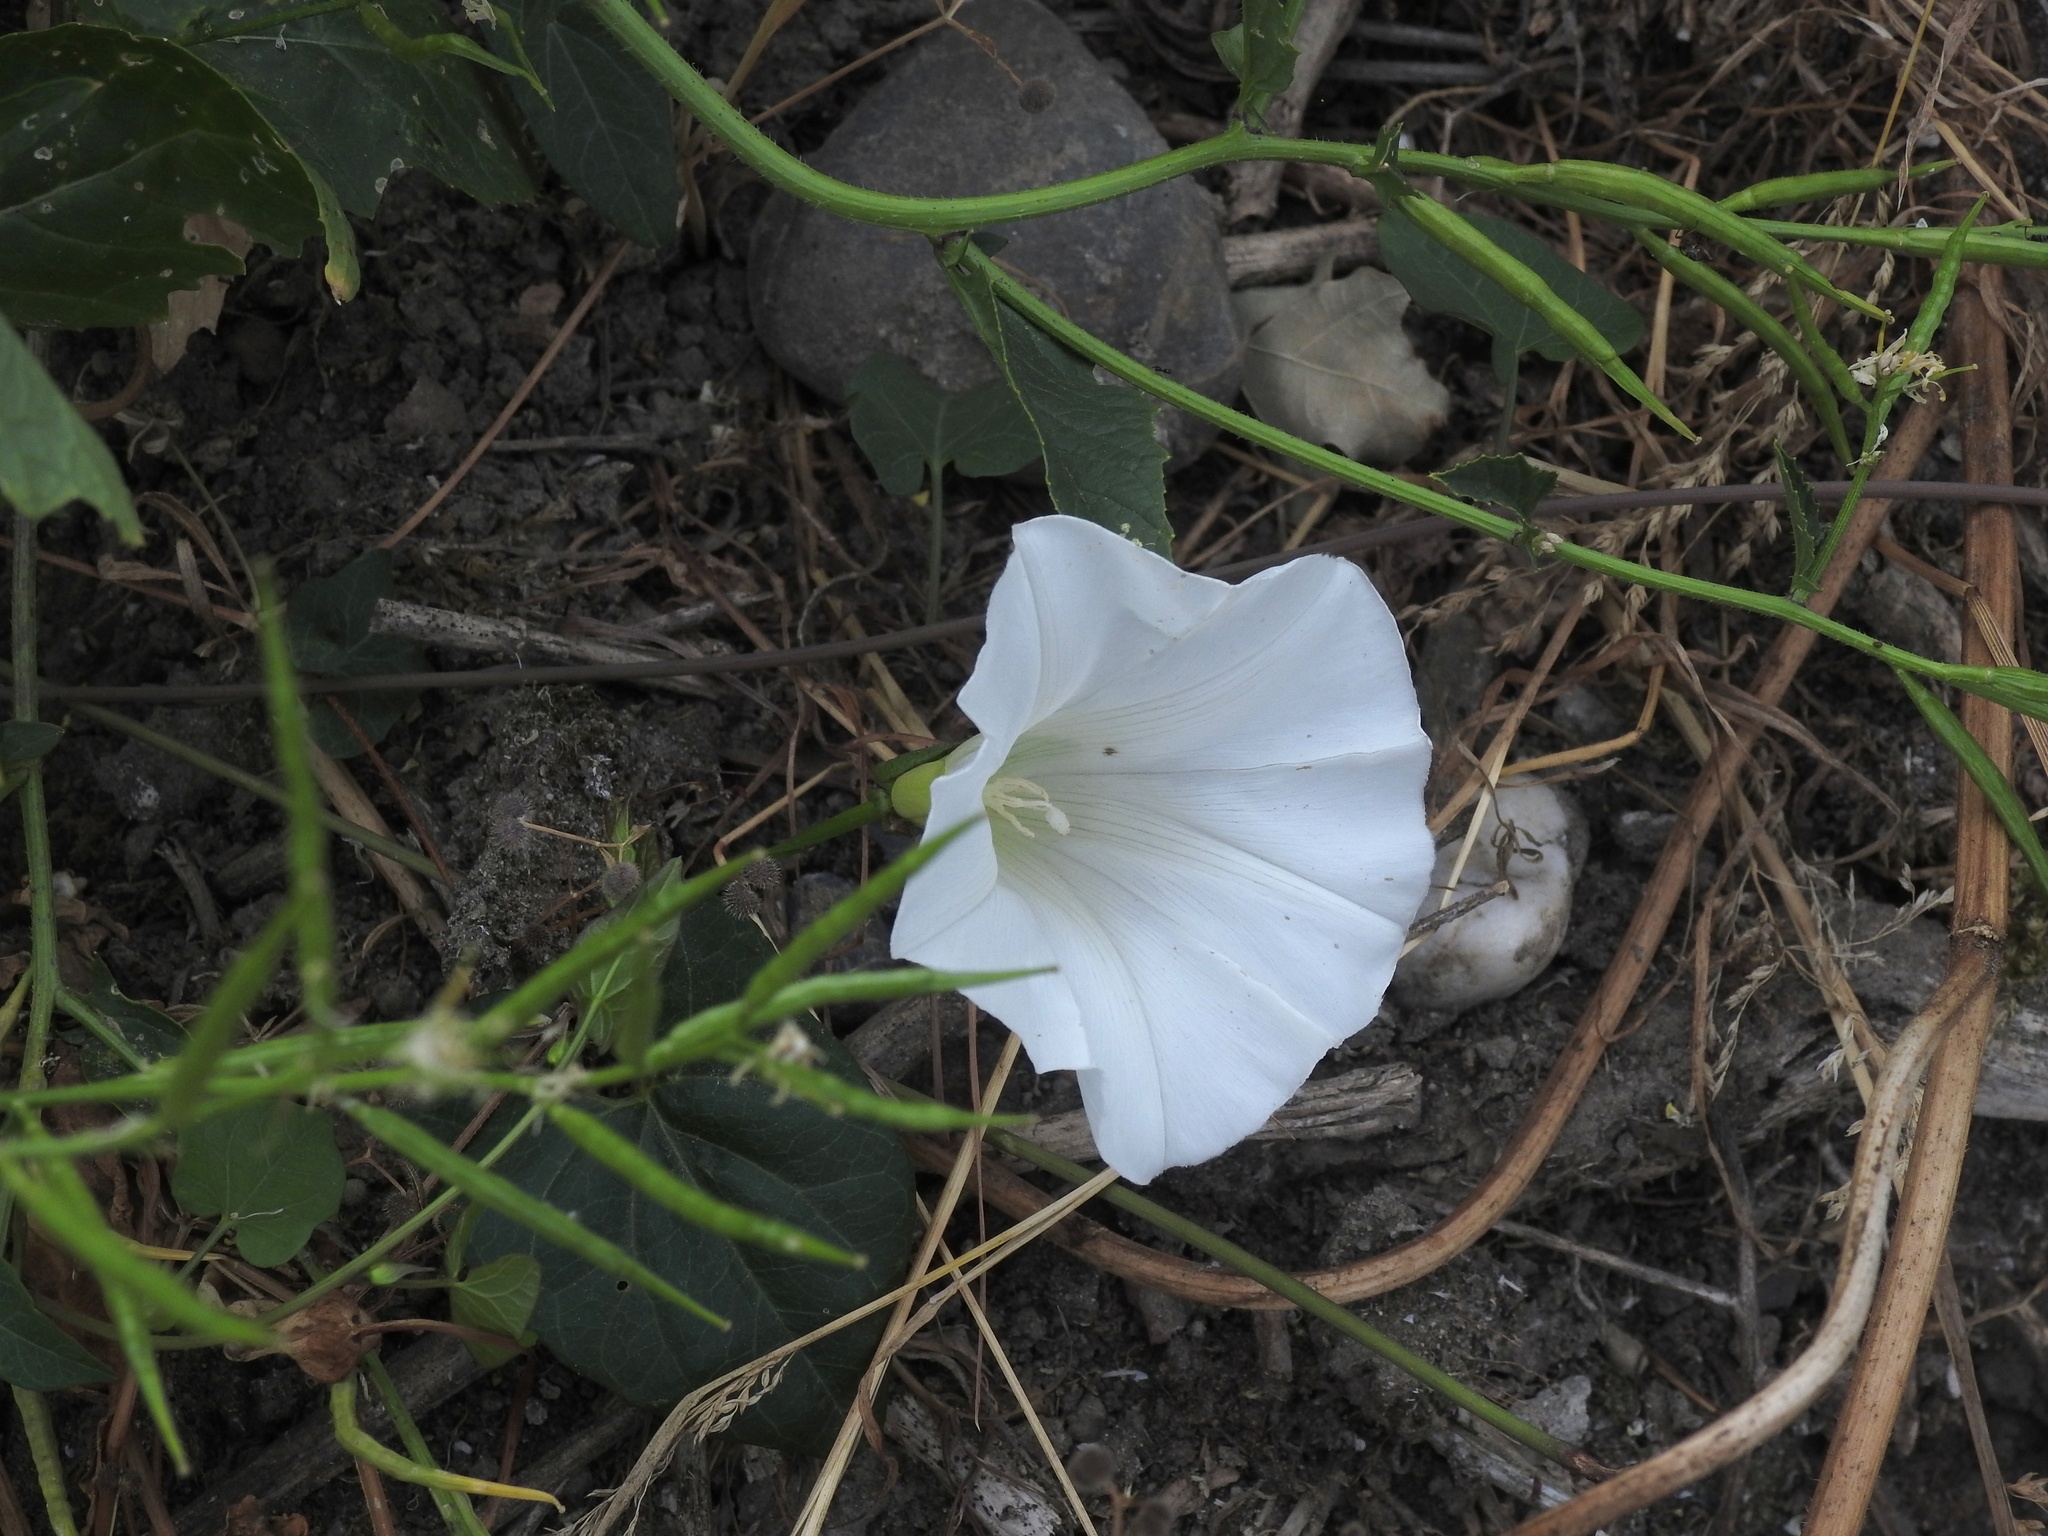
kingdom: Plantae
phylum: Tracheophyta
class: Magnoliopsida
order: Solanales
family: Convolvulaceae
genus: Calystegia
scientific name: Calystegia
